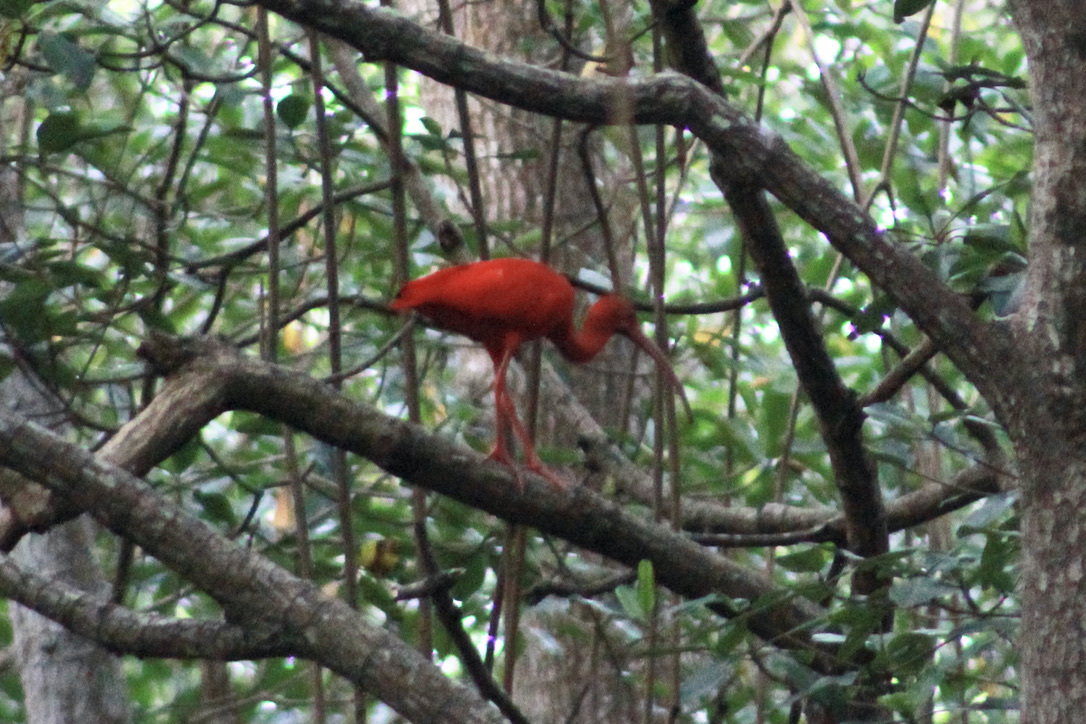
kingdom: Animalia
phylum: Chordata
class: Aves
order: Pelecaniformes
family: Threskiornithidae
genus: Eudocimus
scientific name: Eudocimus ruber
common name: Scarlet ibis
